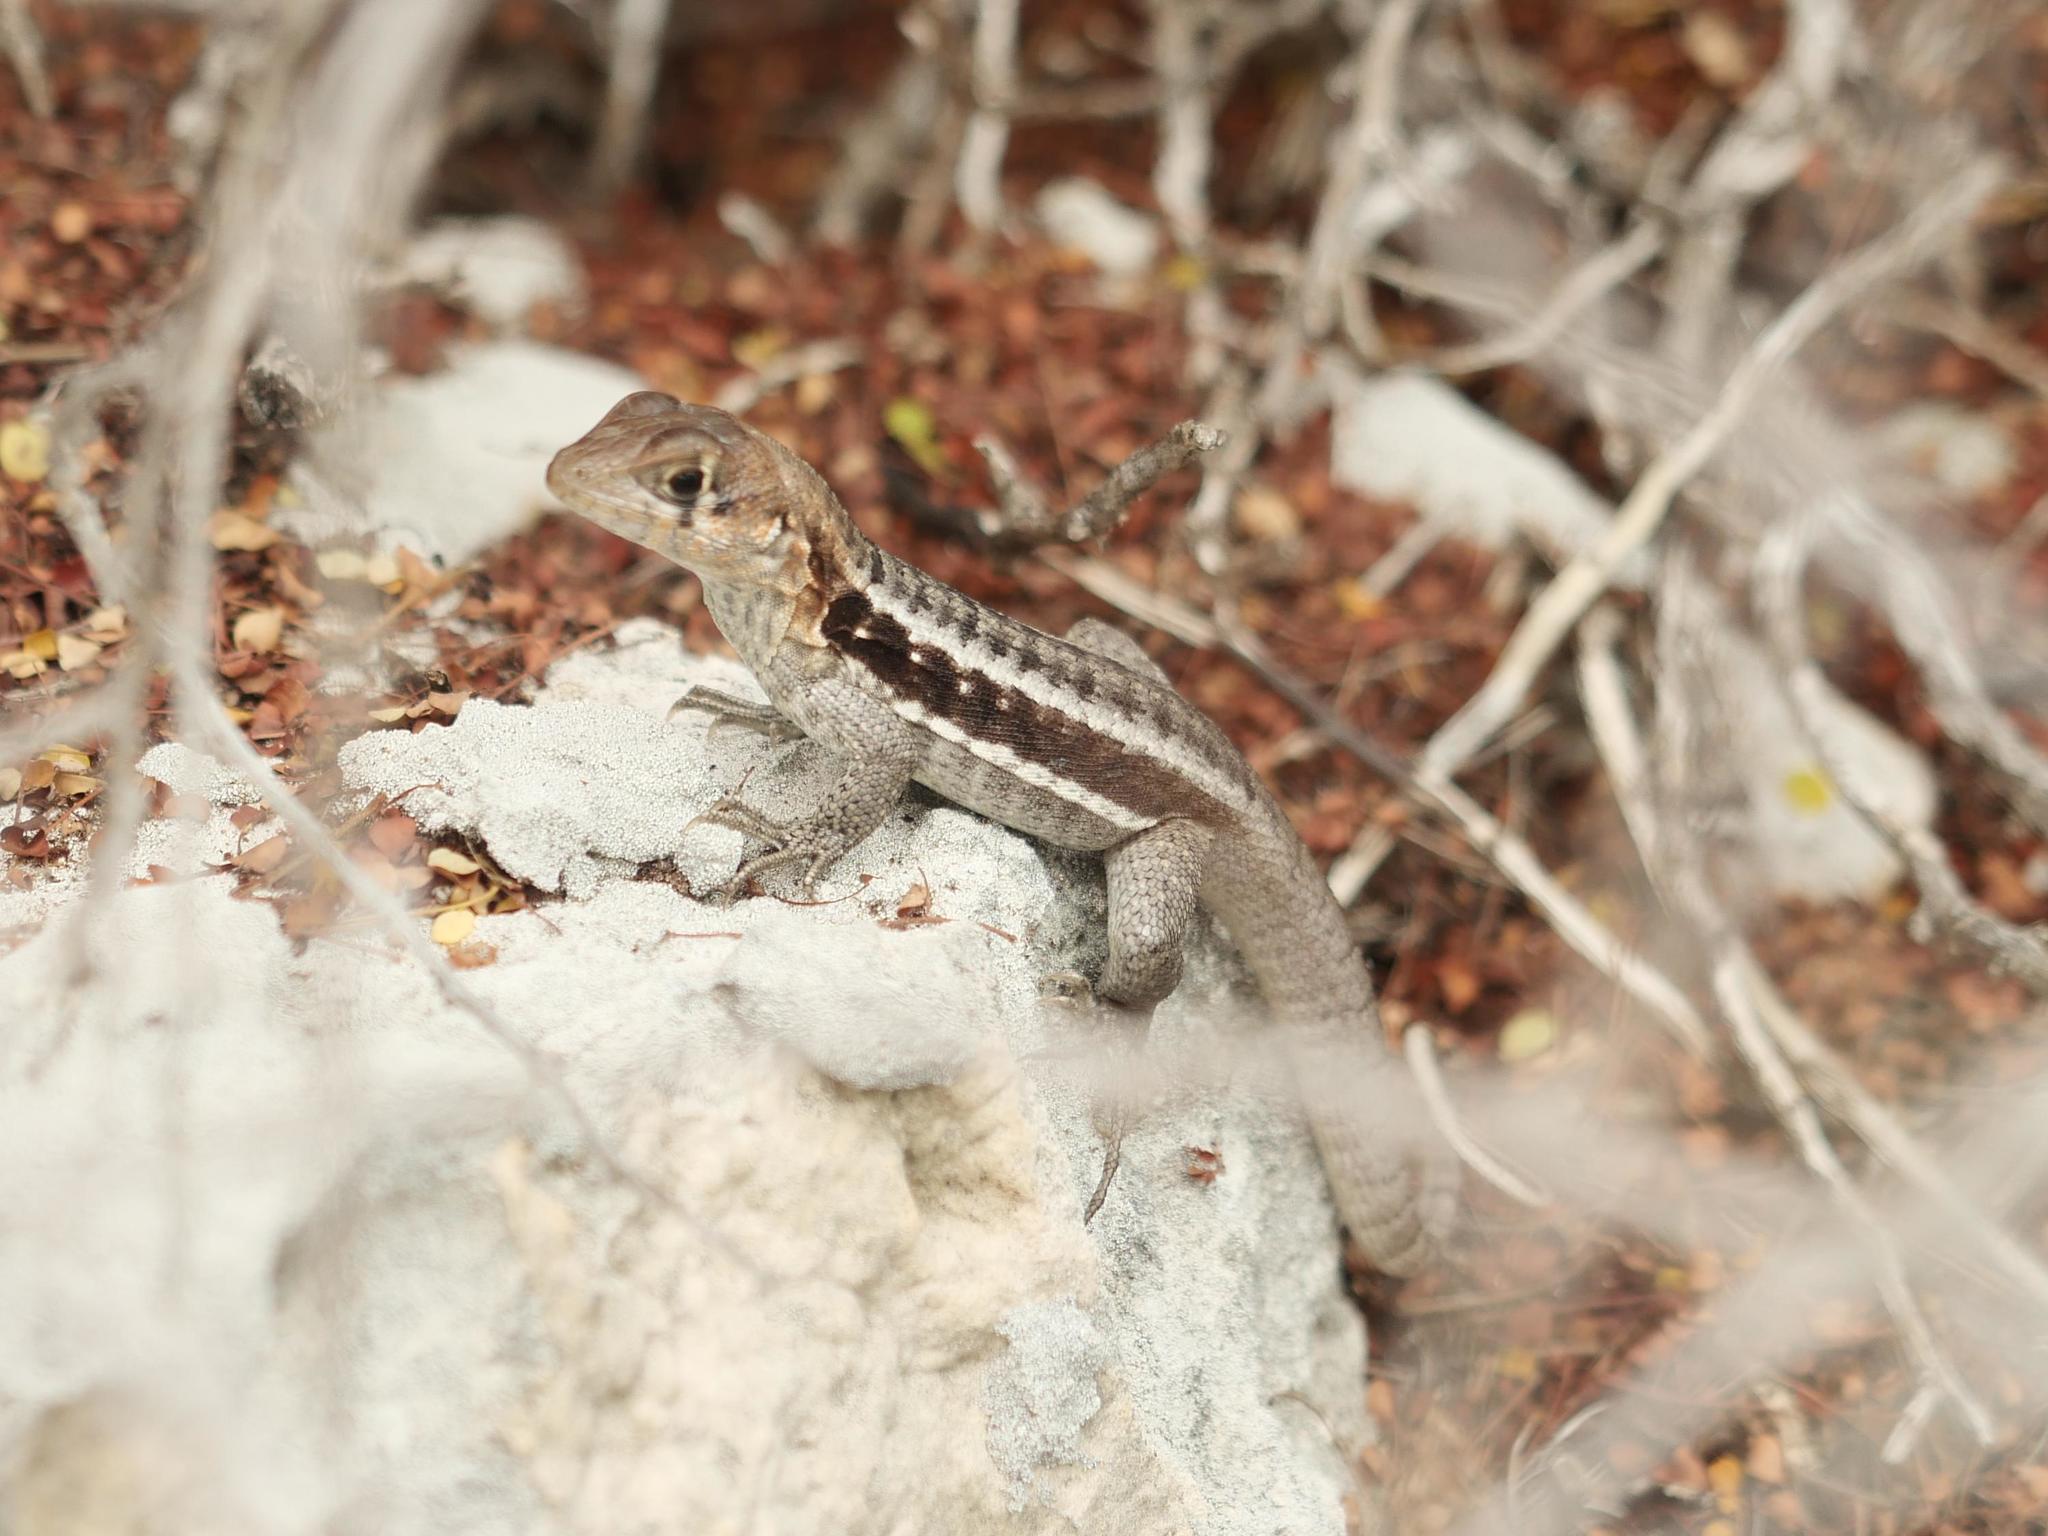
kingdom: Animalia
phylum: Chordata
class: Squamata
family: Leiocephalidae
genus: Leiocephalus
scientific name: Leiocephalus psammodromus
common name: Bastion cay curlytail lizard
